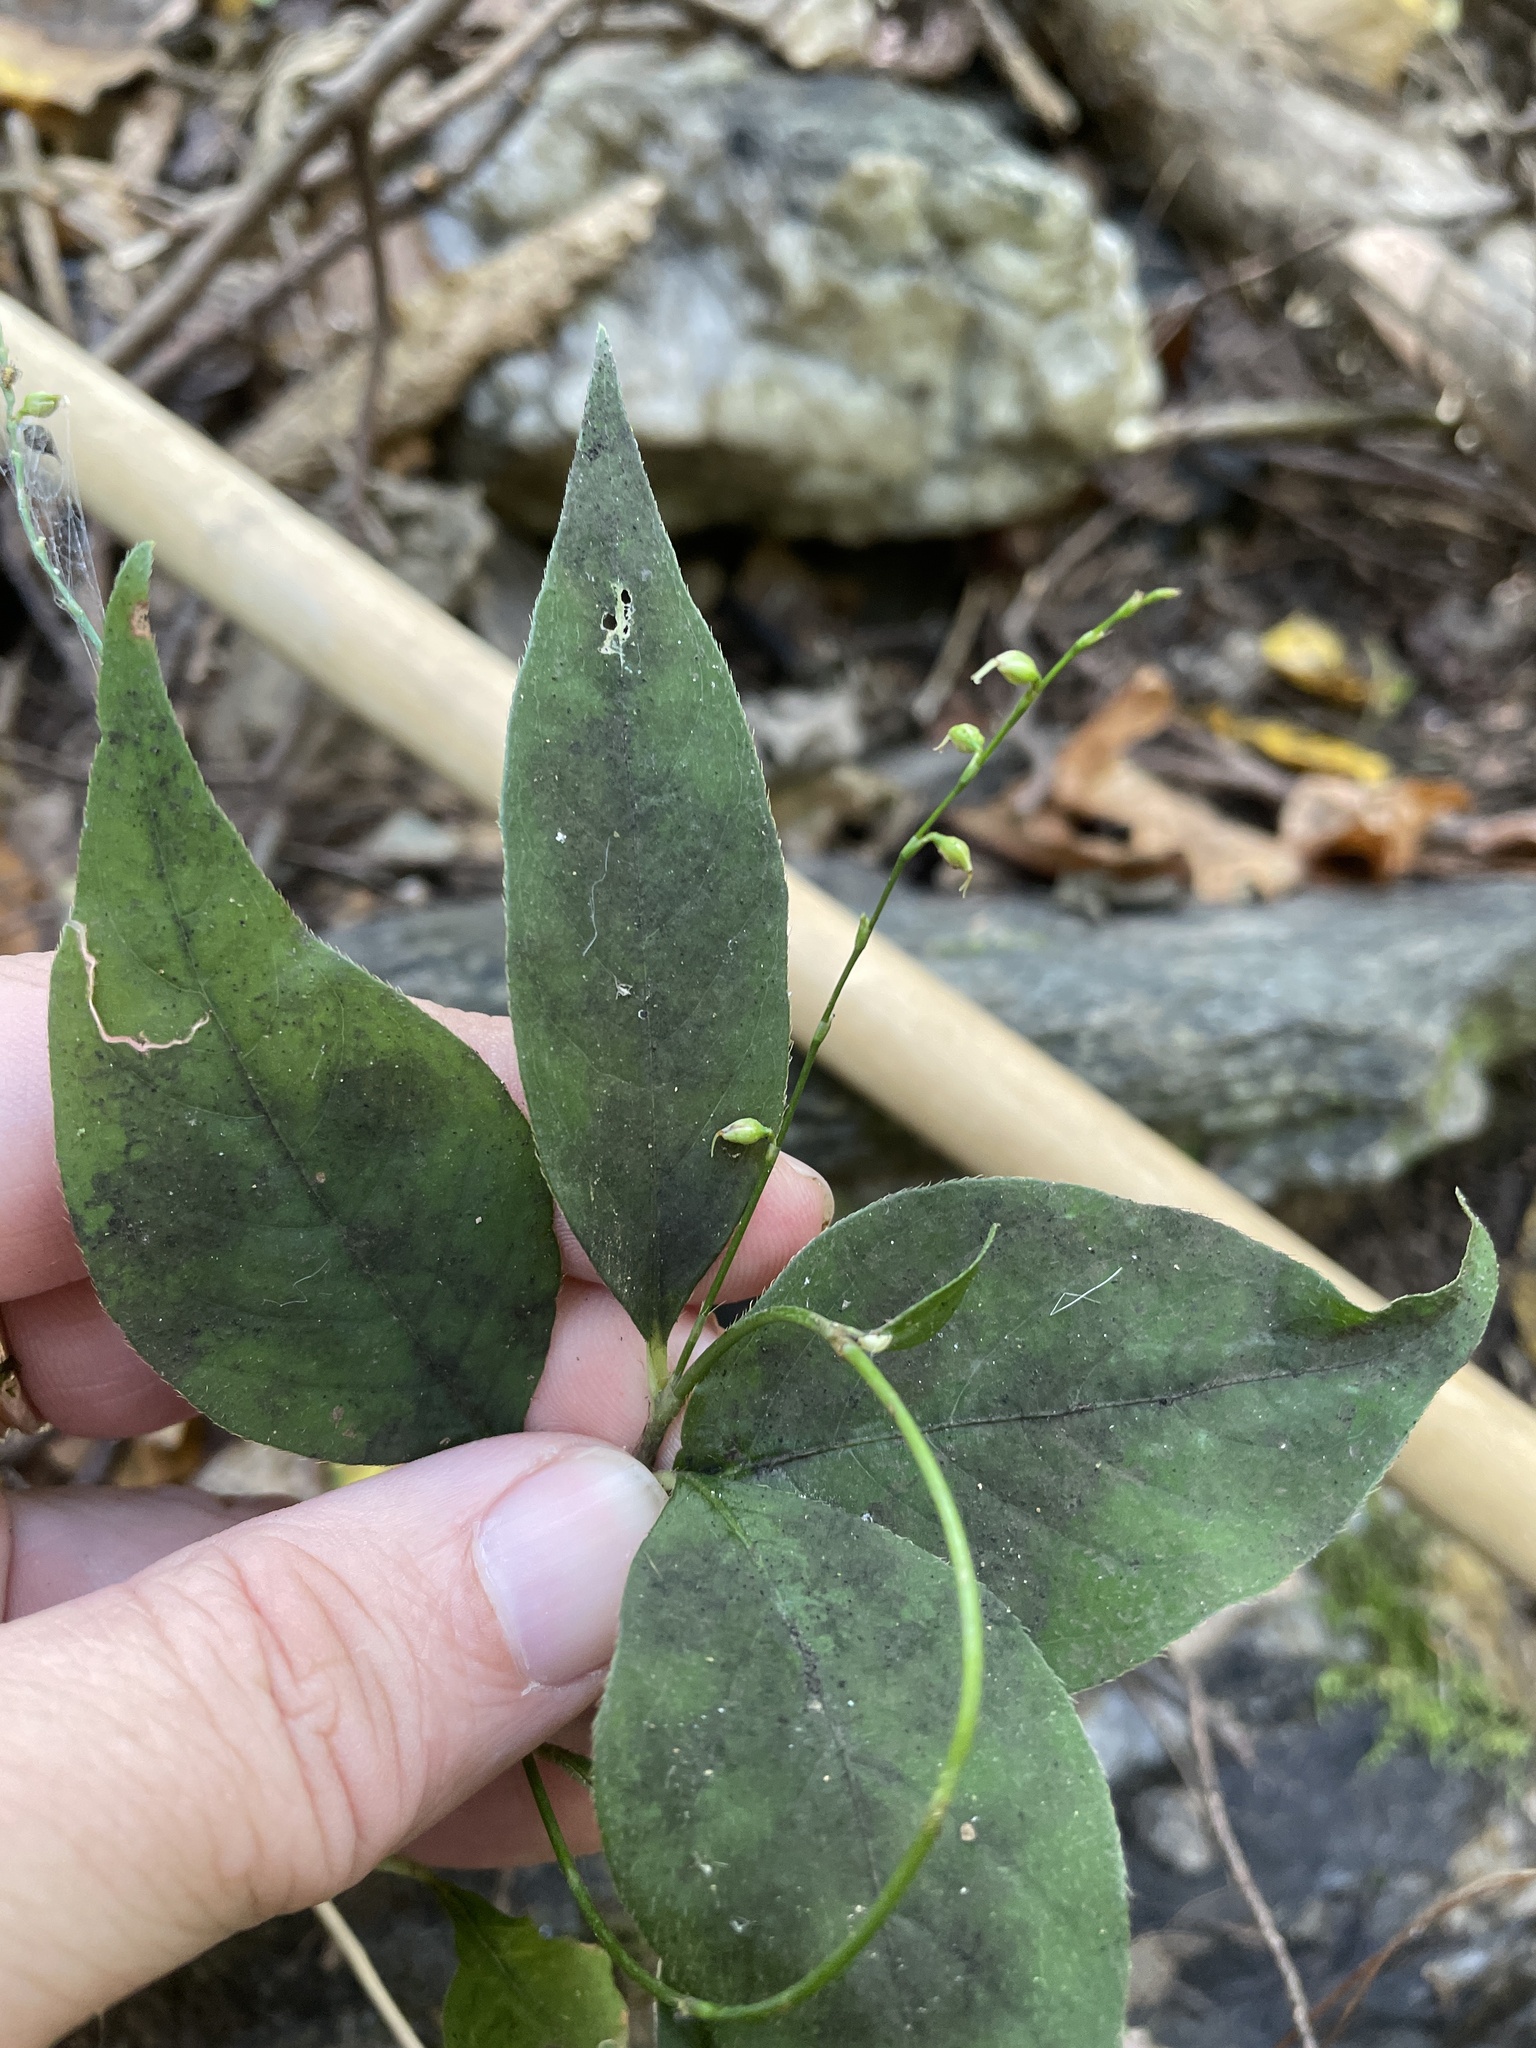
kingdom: Plantae
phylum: Tracheophyta
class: Magnoliopsida
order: Caryophyllales
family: Polygonaceae
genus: Persicaria
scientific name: Persicaria virginiana
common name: Jumpseed
